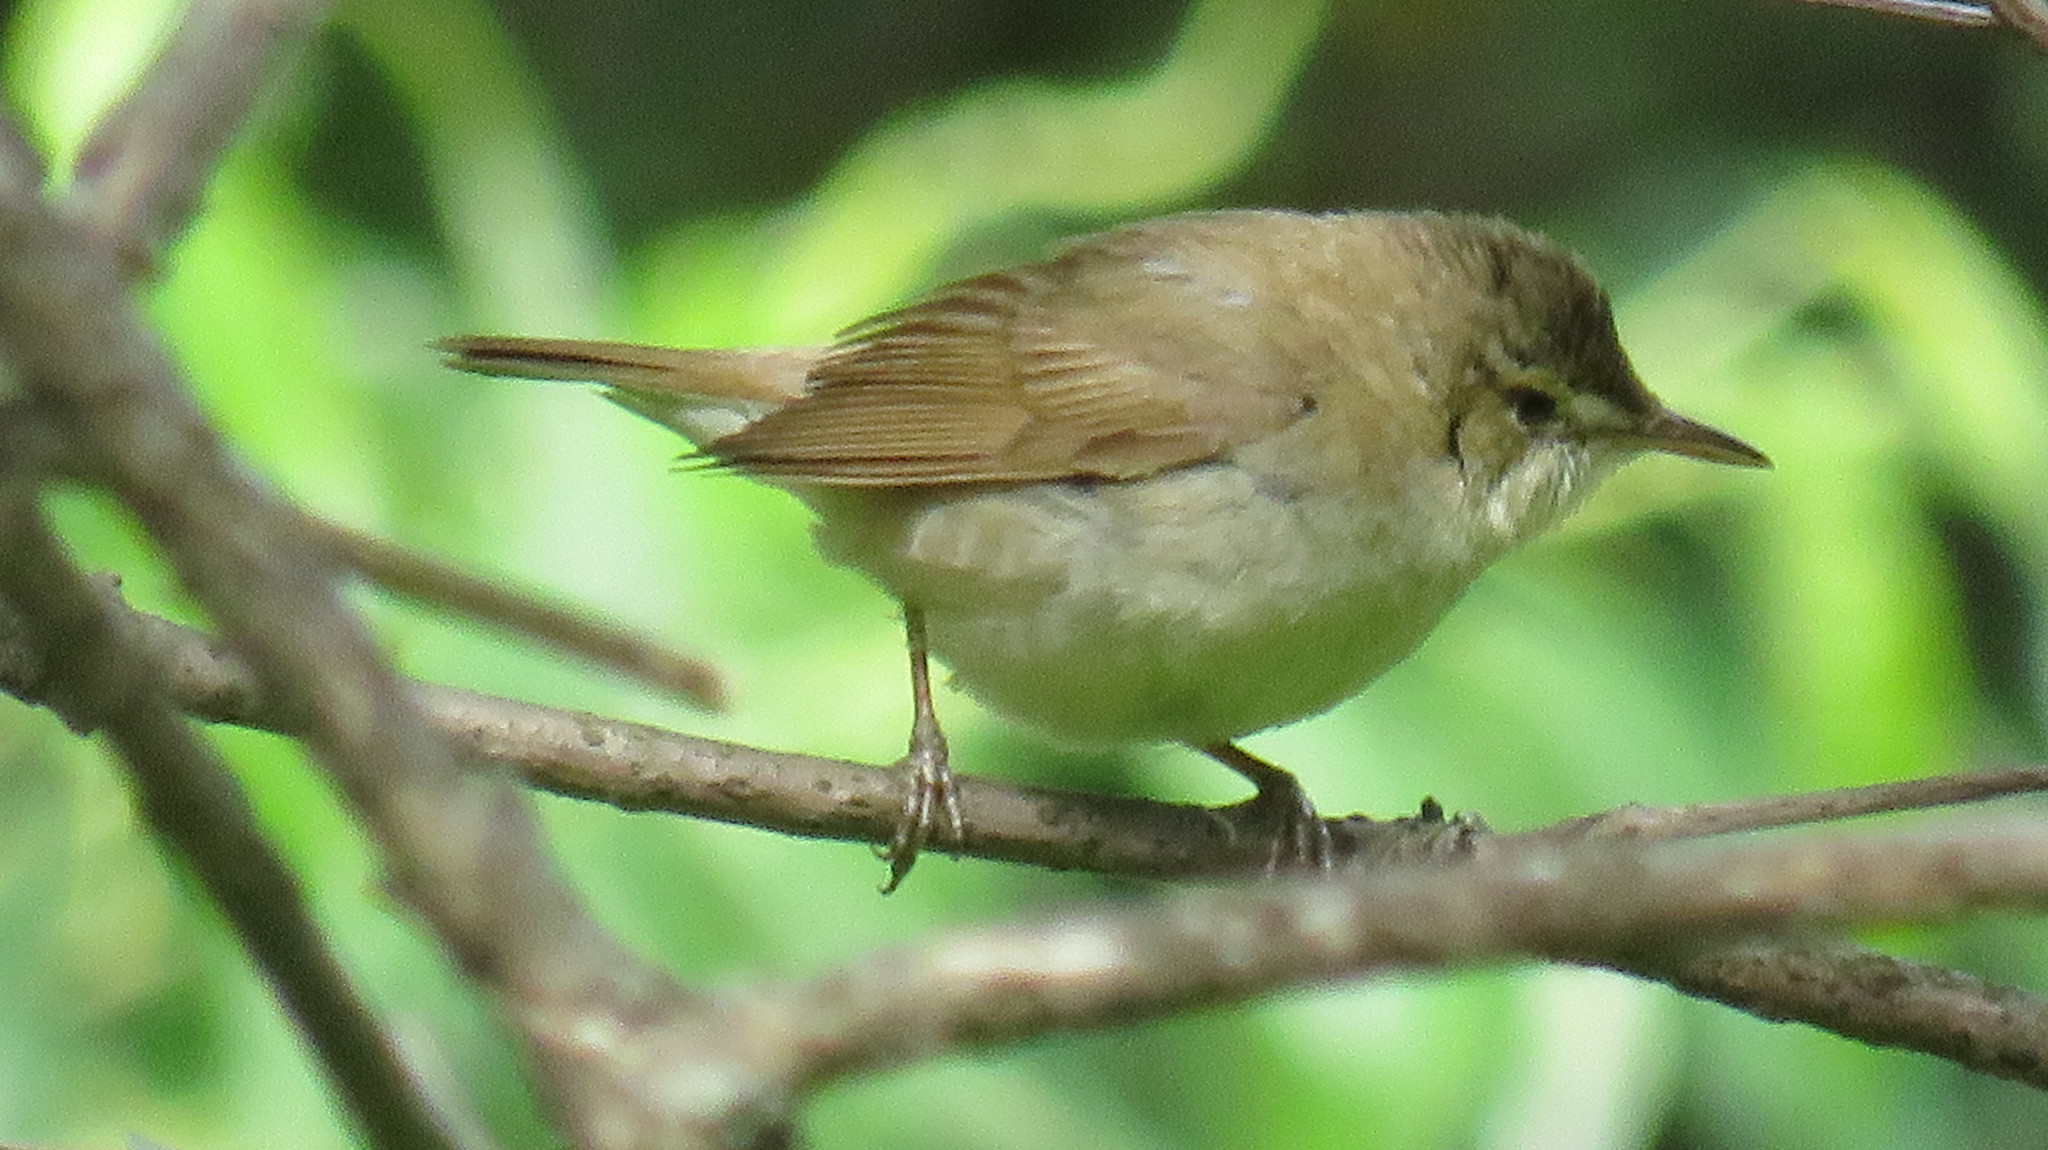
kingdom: Animalia
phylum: Chordata
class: Aves
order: Passeriformes
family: Acrocephalidae
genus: Acrocephalus
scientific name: Acrocephalus dumetorum
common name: Blyth's reed warbler
